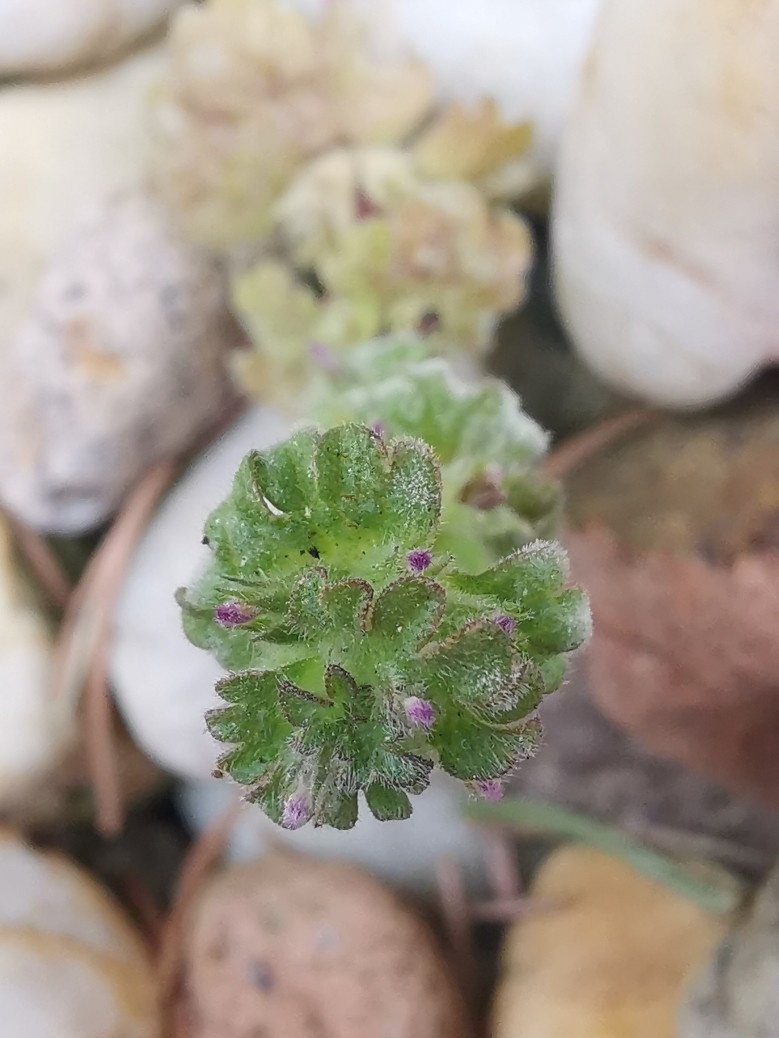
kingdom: Plantae
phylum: Tracheophyta
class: Magnoliopsida
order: Lamiales
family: Lamiaceae
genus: Lamium
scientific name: Lamium amplexicaule
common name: Henbit dead-nettle
